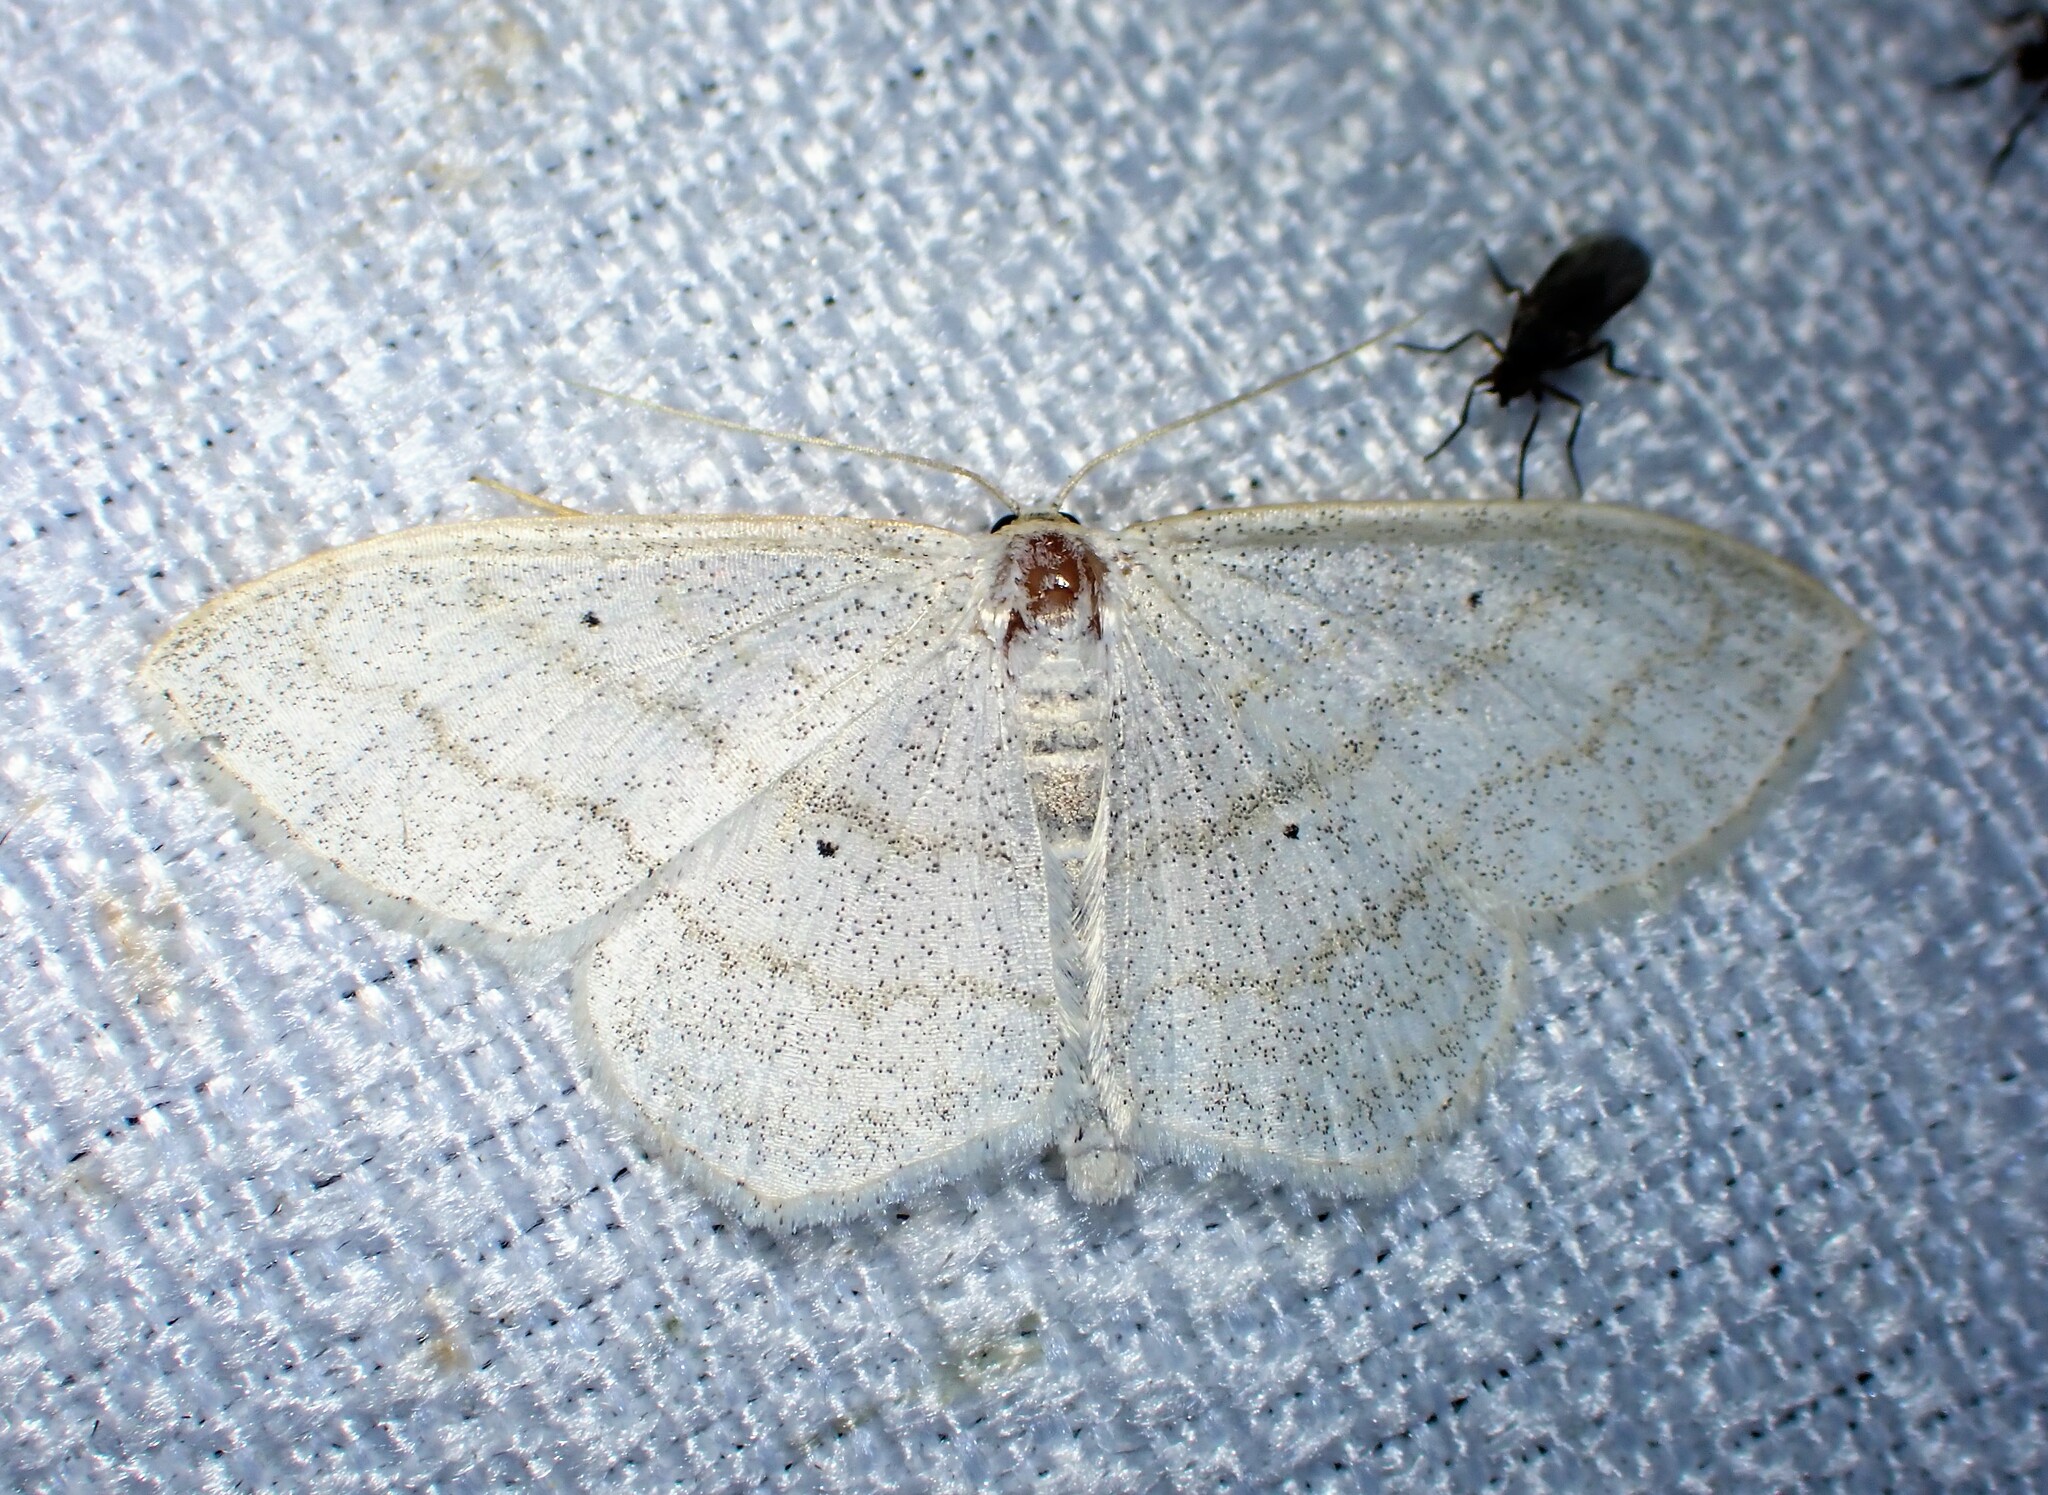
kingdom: Animalia
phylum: Arthropoda
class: Insecta
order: Lepidoptera
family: Geometridae
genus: Scopula
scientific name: Scopula limboundata
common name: Large lace border
